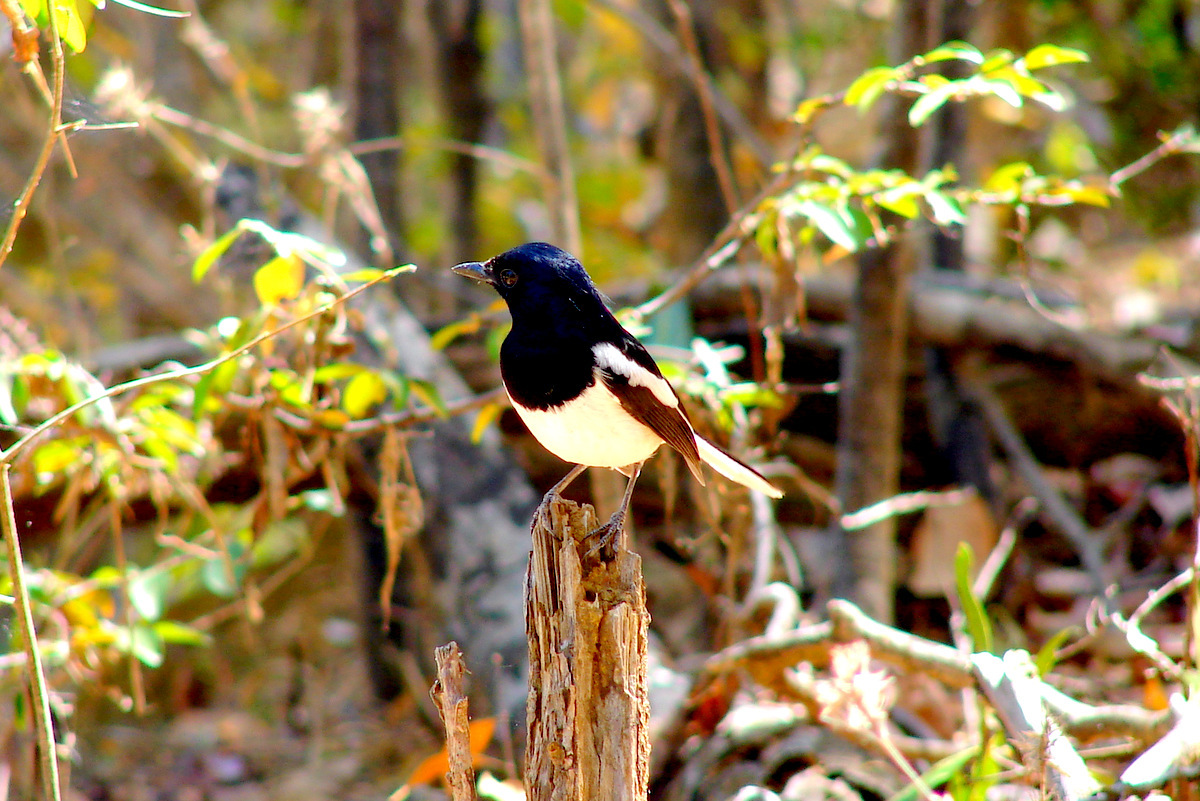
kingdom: Animalia
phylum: Chordata
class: Aves
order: Passeriformes
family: Muscicapidae
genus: Copsychus
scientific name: Copsychus albospecularis
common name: Madagascar magpie-robin
